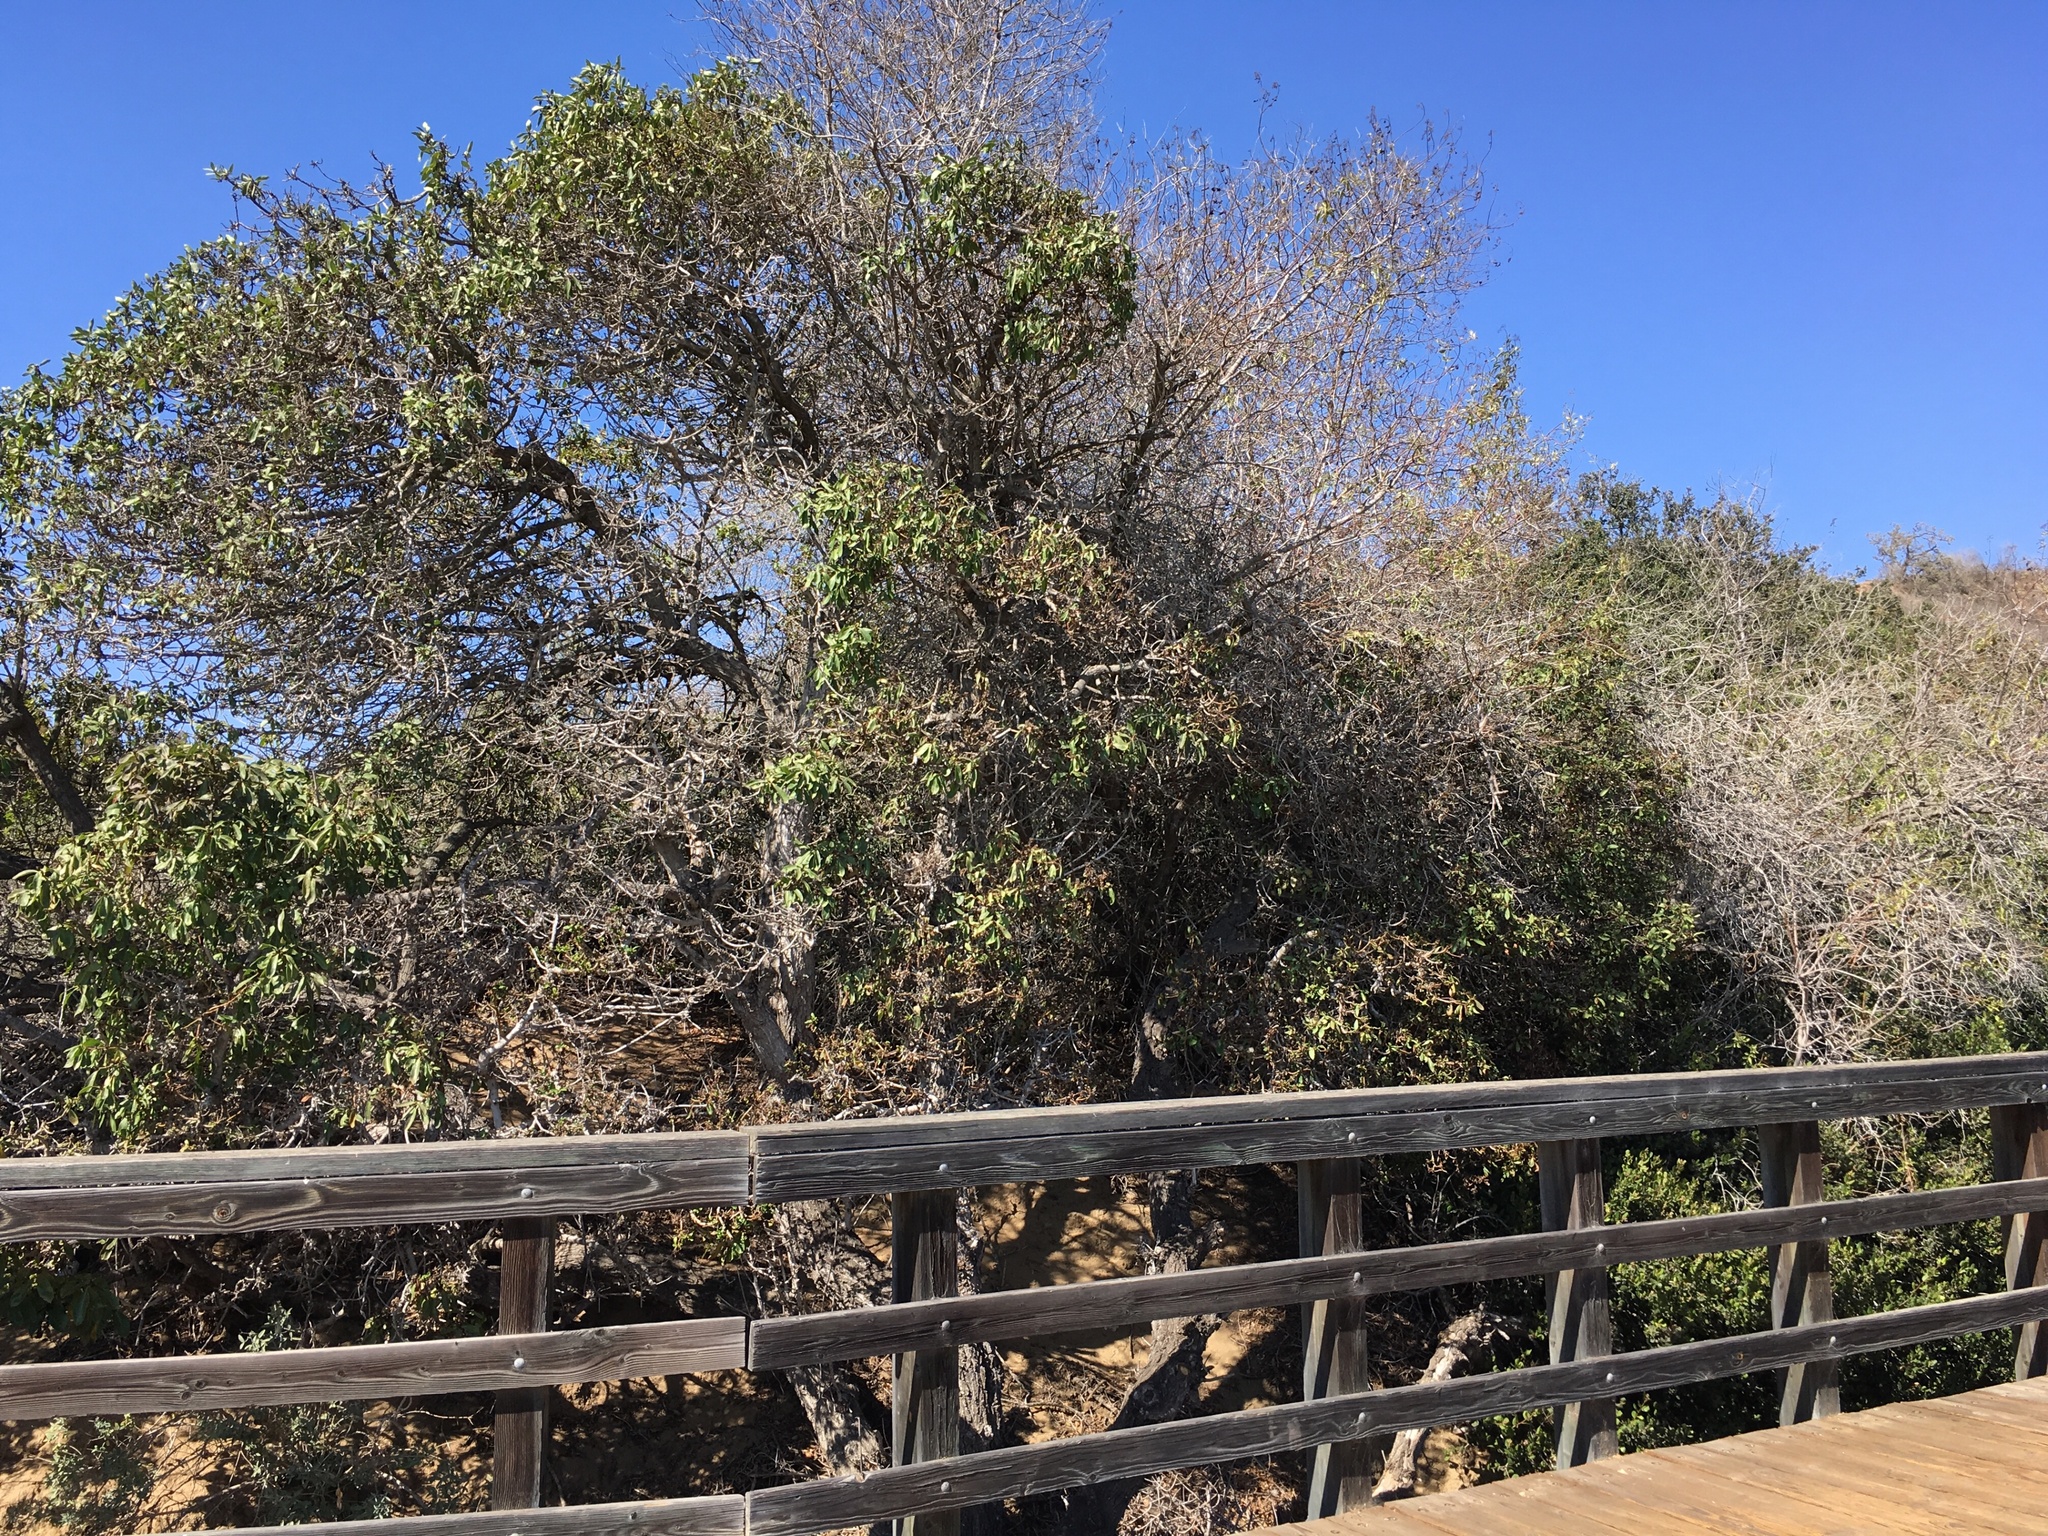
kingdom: Plantae
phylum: Tracheophyta
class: Magnoliopsida
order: Lamiales
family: Scrophulariaceae
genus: Myoporum
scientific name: Myoporum laetum
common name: Ngaio tree
